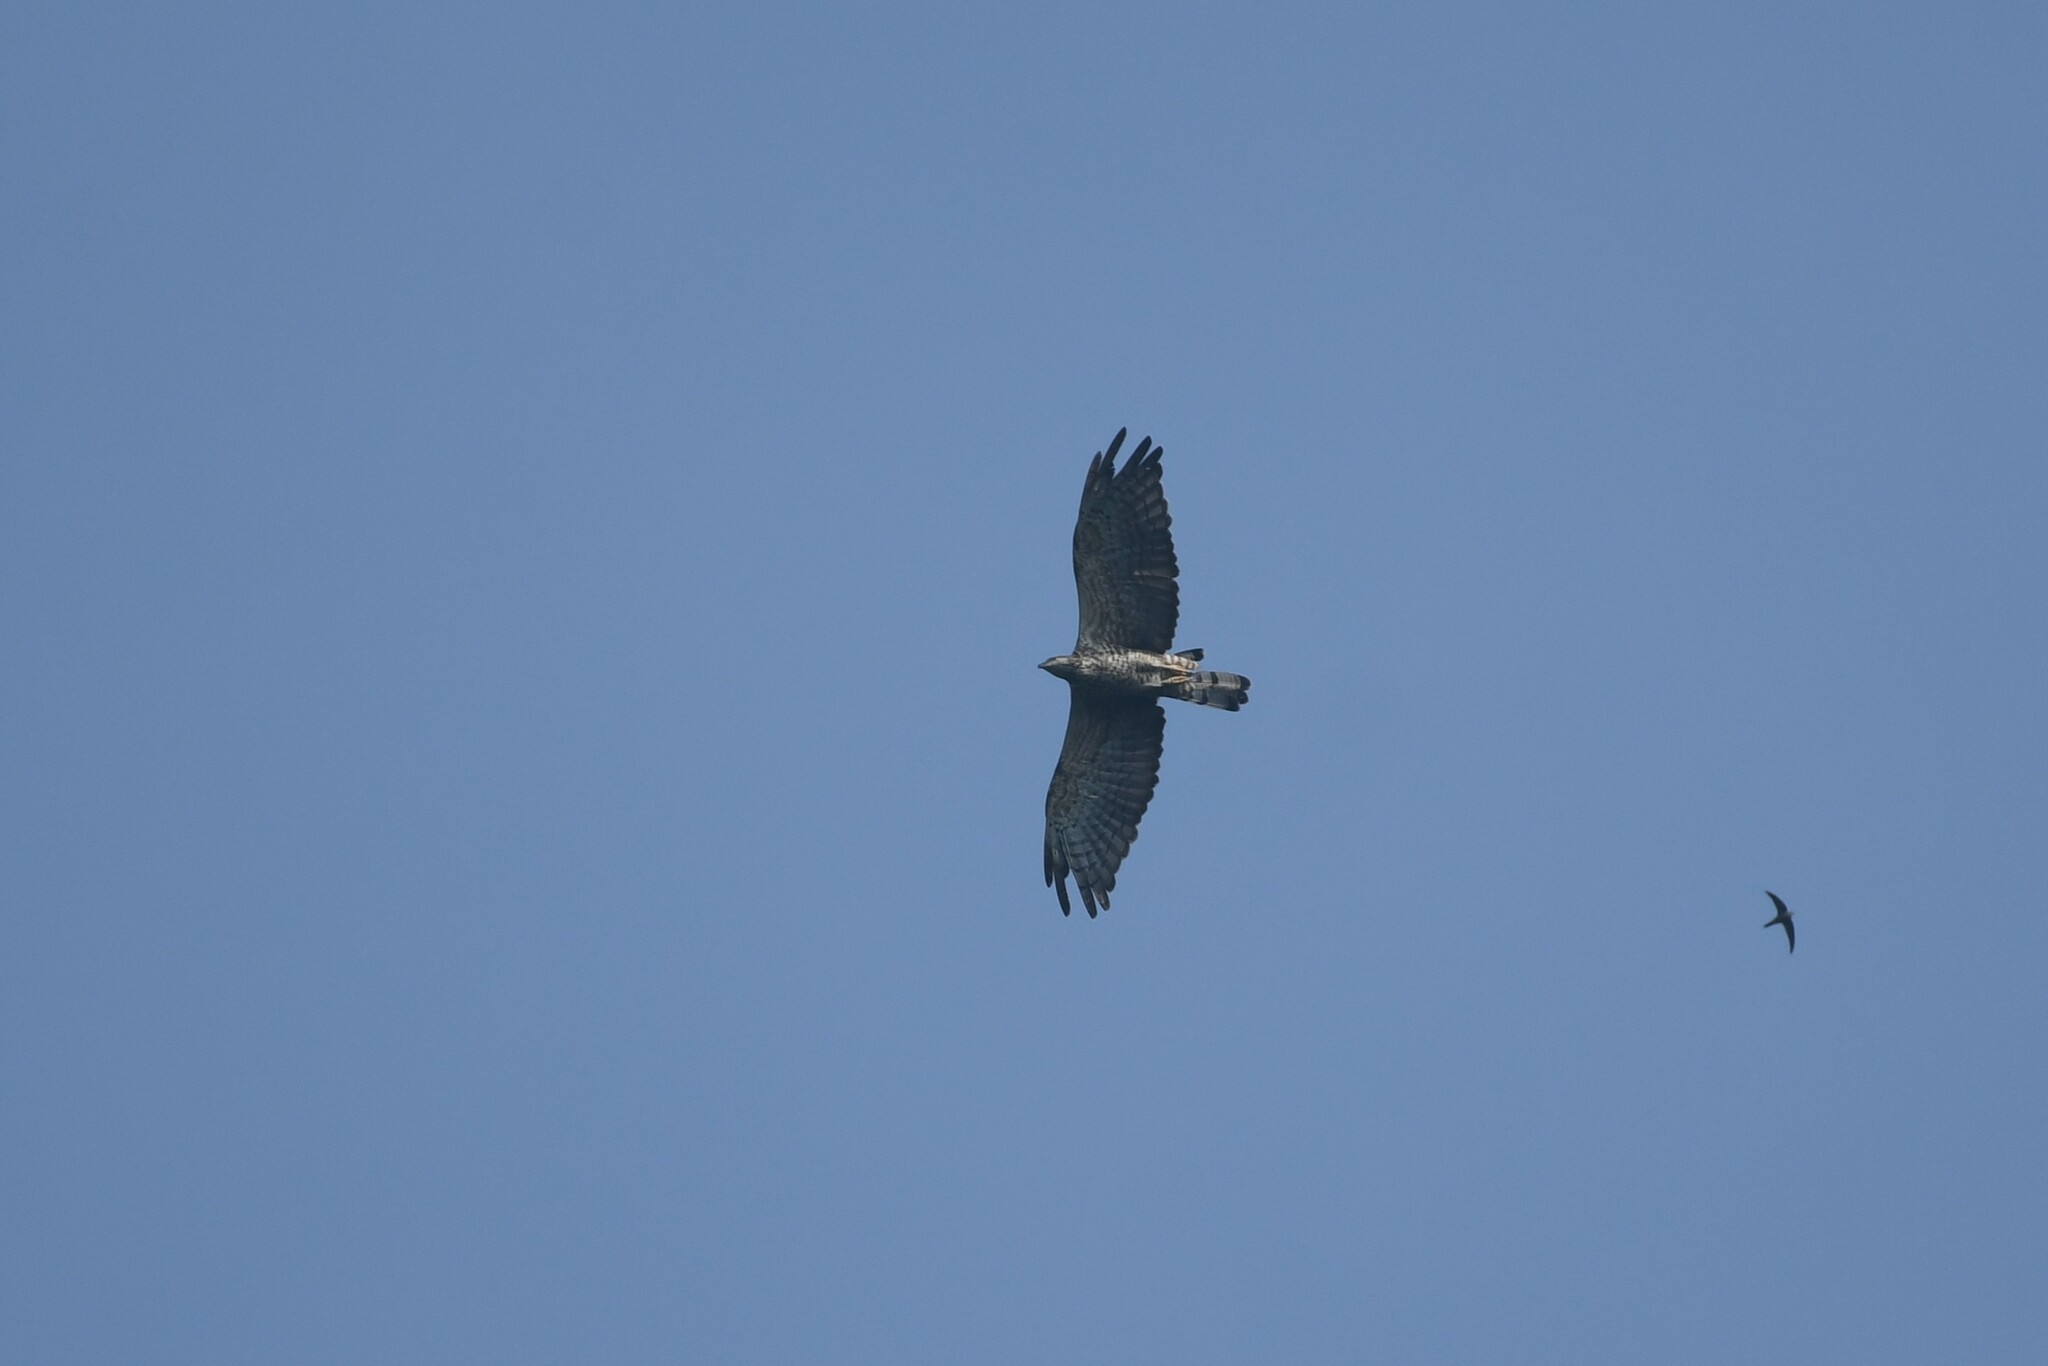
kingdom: Animalia
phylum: Chordata
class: Aves
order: Accipitriformes
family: Accipitridae
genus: Pernis
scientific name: Pernis ptilorhynchus
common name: Crested honey buzzard
